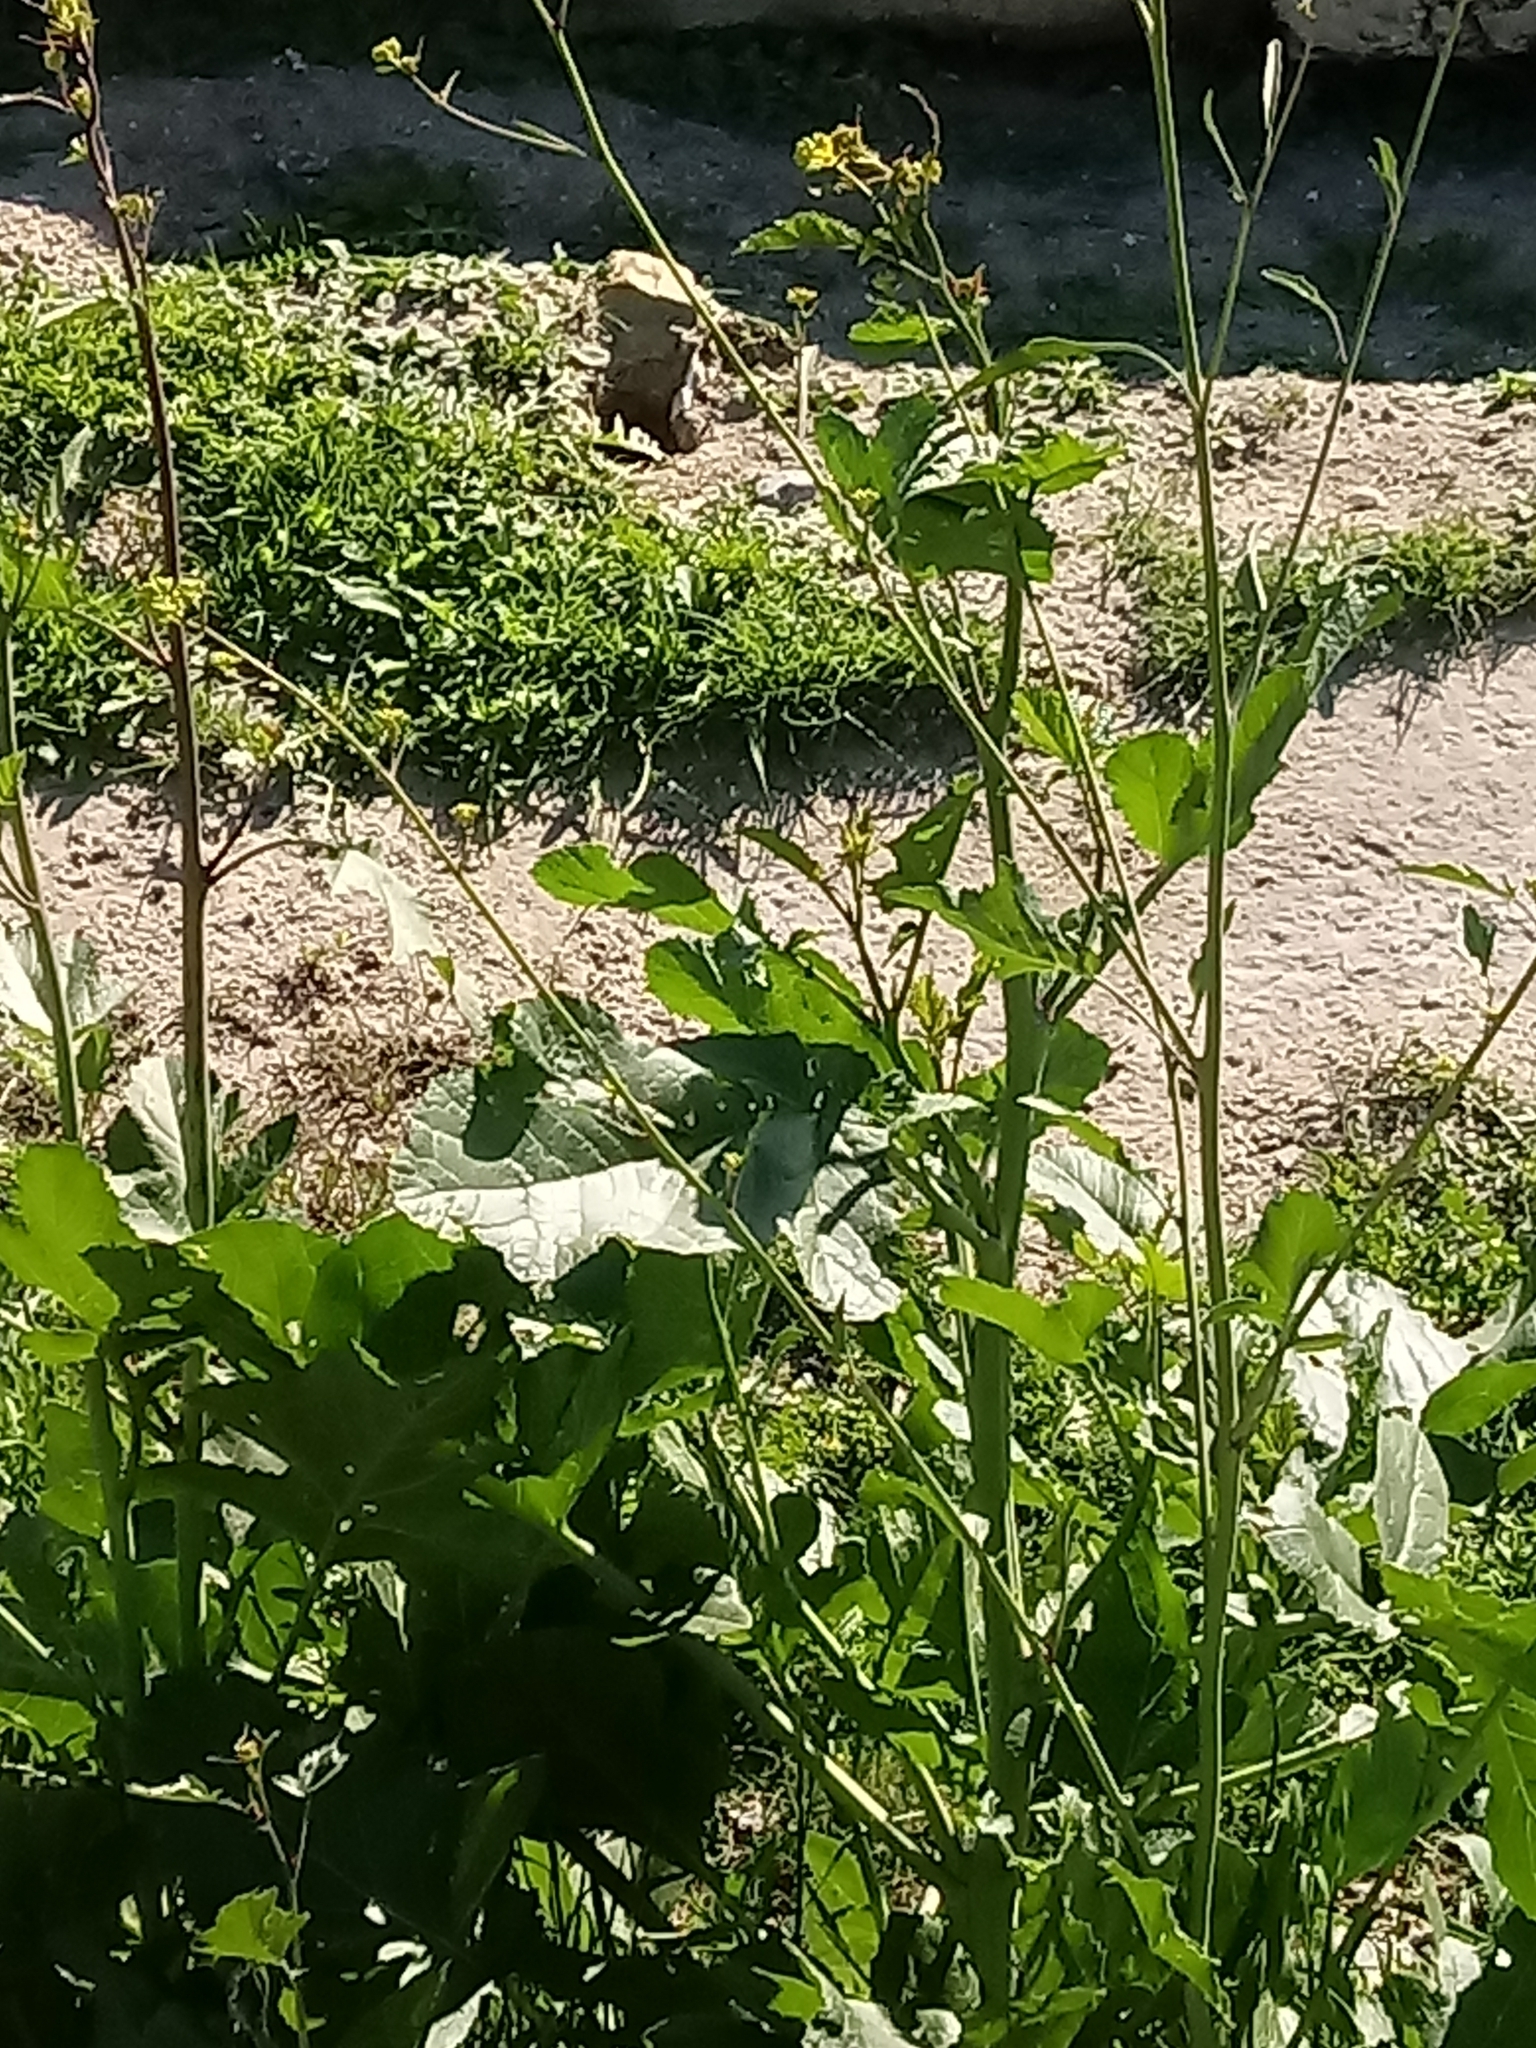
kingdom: Plantae
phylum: Tracheophyta
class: Magnoliopsida
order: Brassicales
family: Brassicaceae
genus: Brassica
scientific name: Brassica nigra
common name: Black mustard
